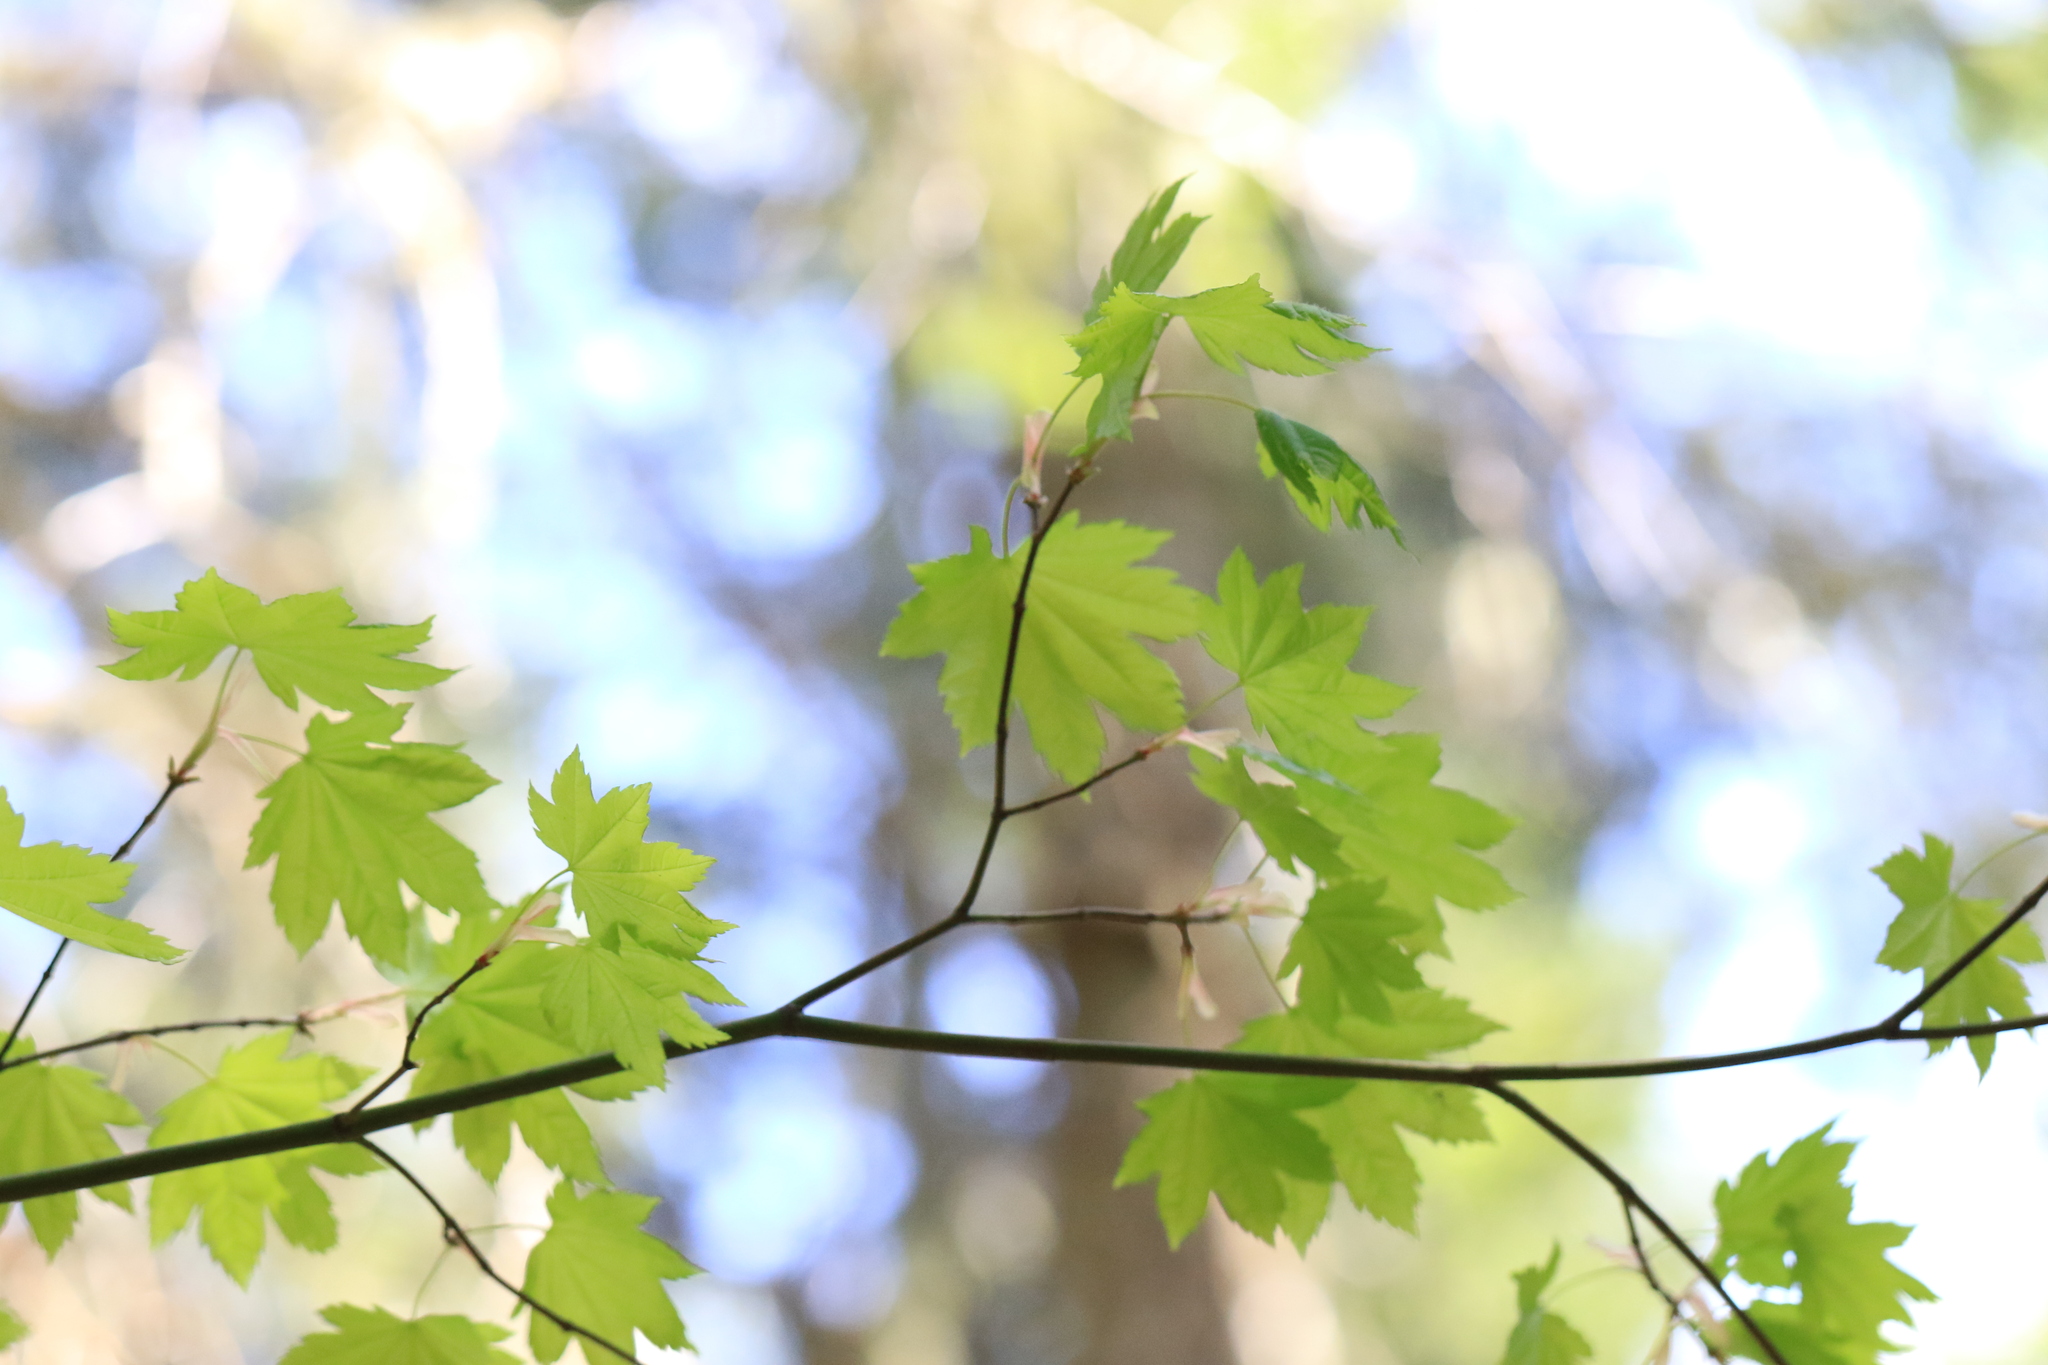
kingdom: Plantae
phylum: Tracheophyta
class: Magnoliopsida
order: Sapindales
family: Sapindaceae
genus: Acer
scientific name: Acer circinatum
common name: Vine maple
